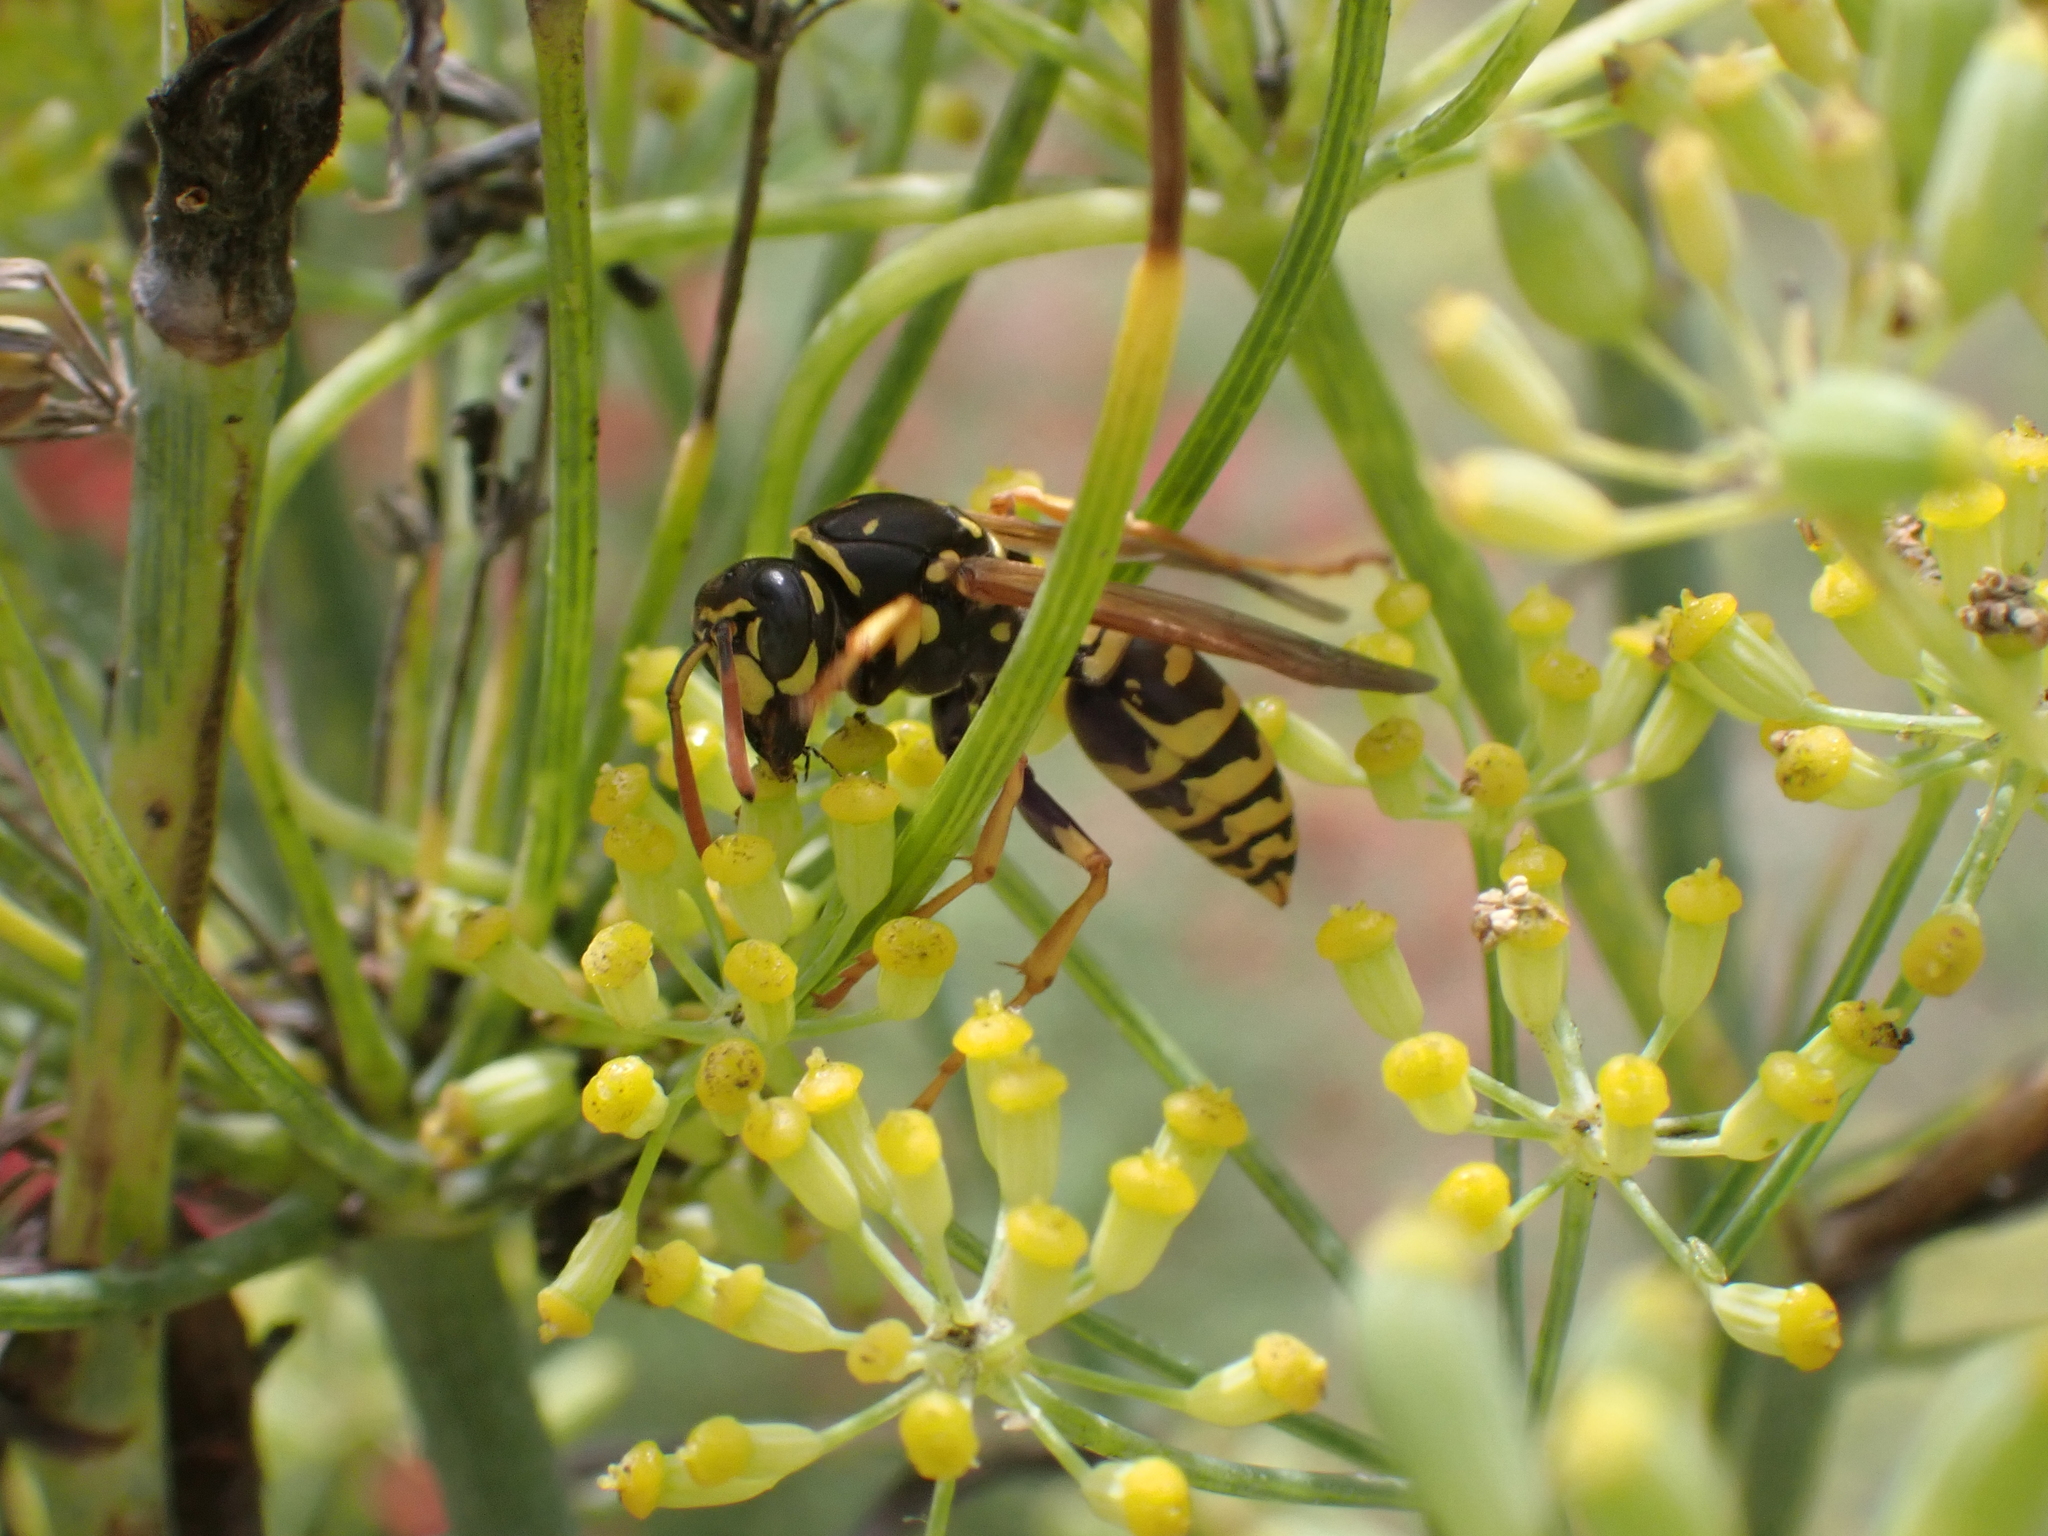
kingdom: Animalia
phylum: Arthropoda
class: Insecta
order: Hymenoptera
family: Eumenidae
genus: Polistes
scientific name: Polistes dominula
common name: Paper wasp
